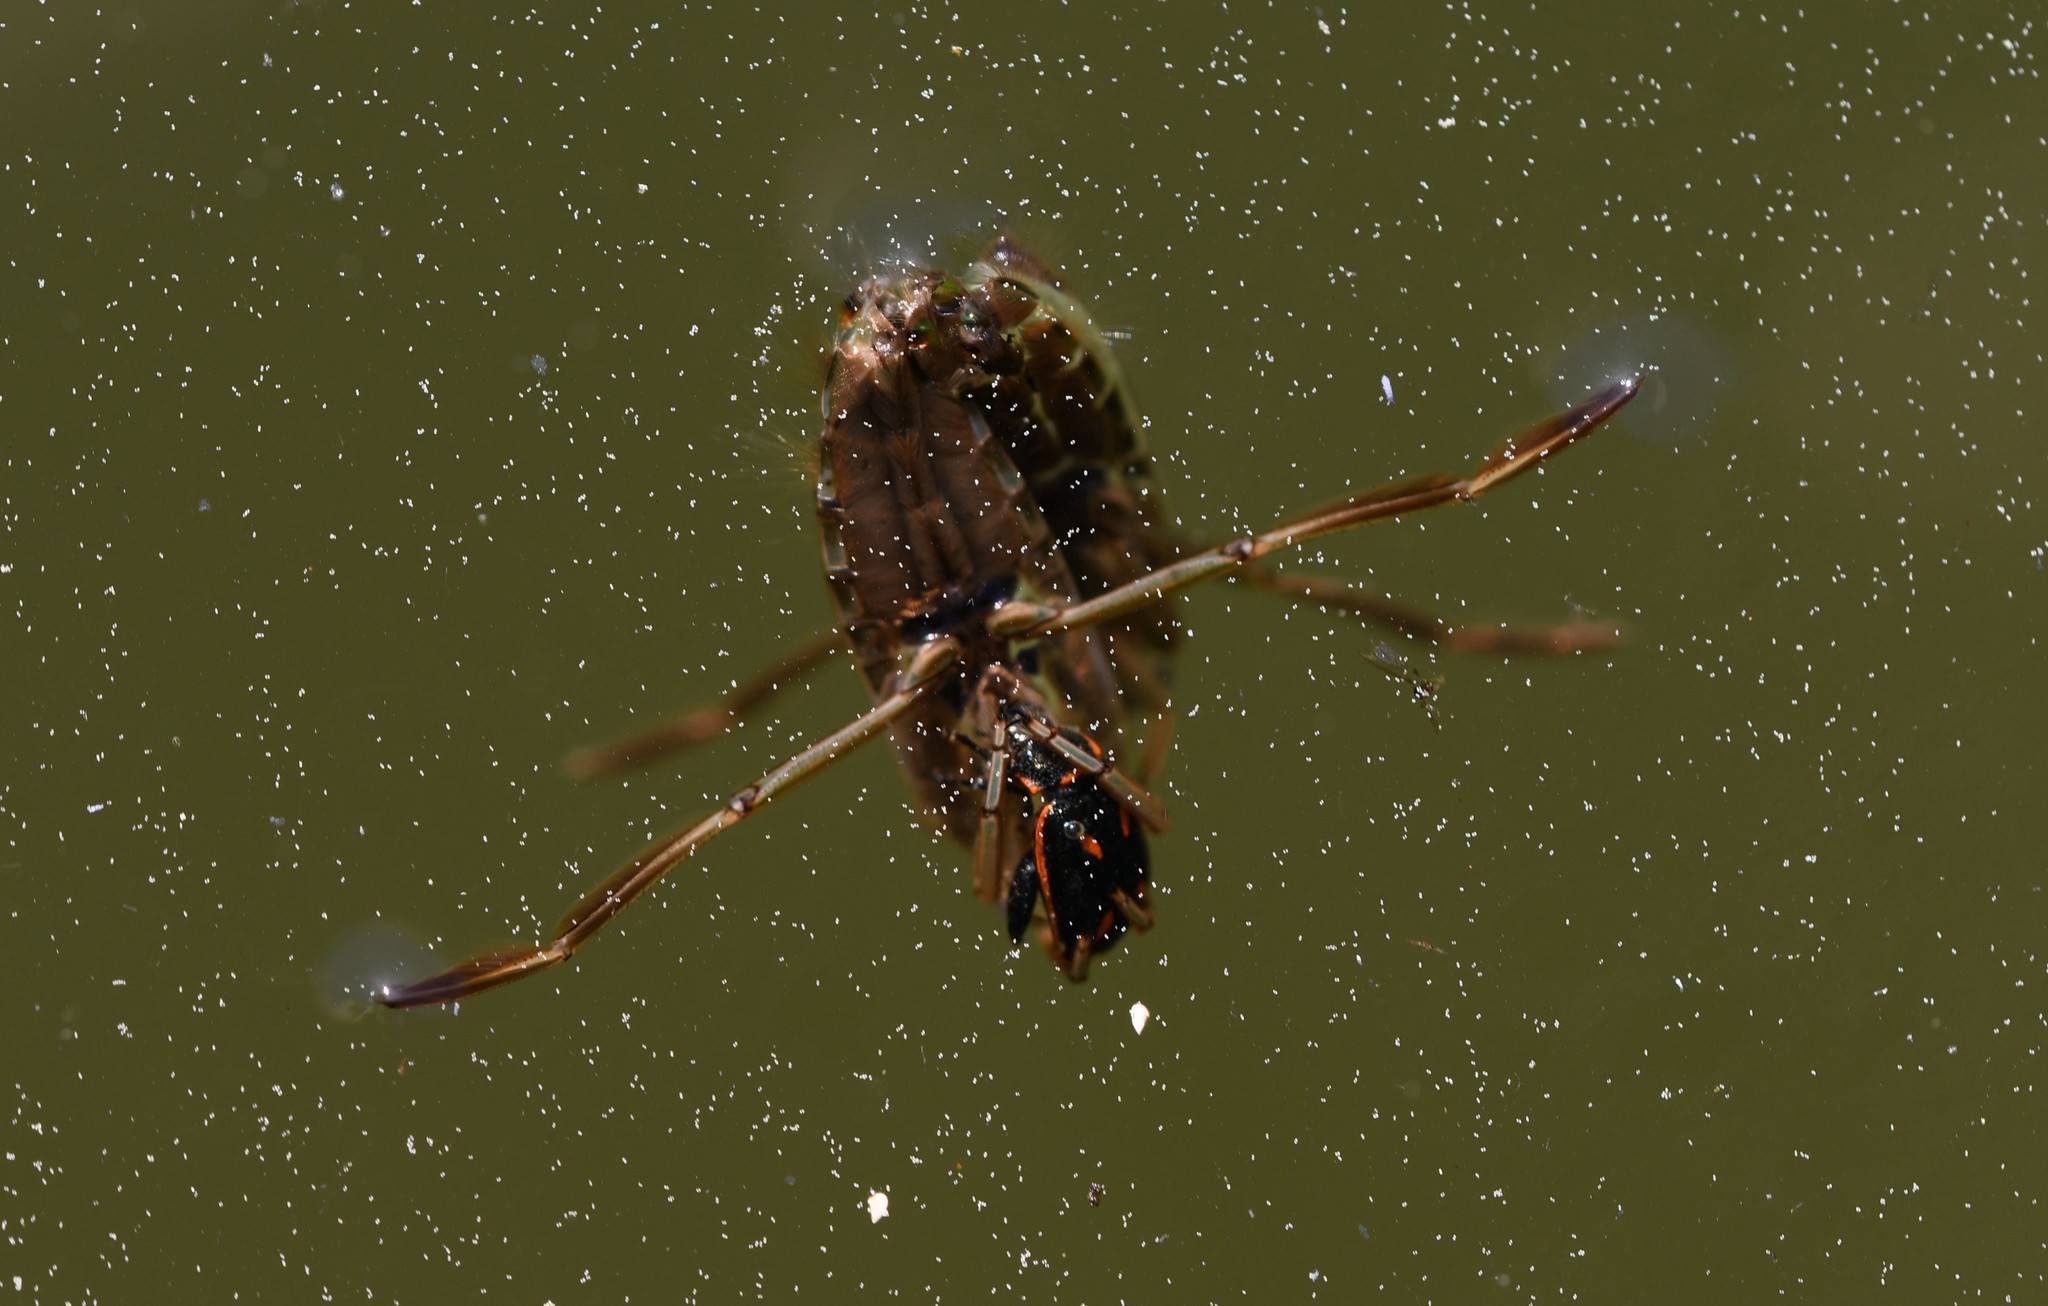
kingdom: Animalia
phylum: Arthropoda
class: Insecta
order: Hemiptera
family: Notonectidae
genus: Notonecta
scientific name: Notonecta
